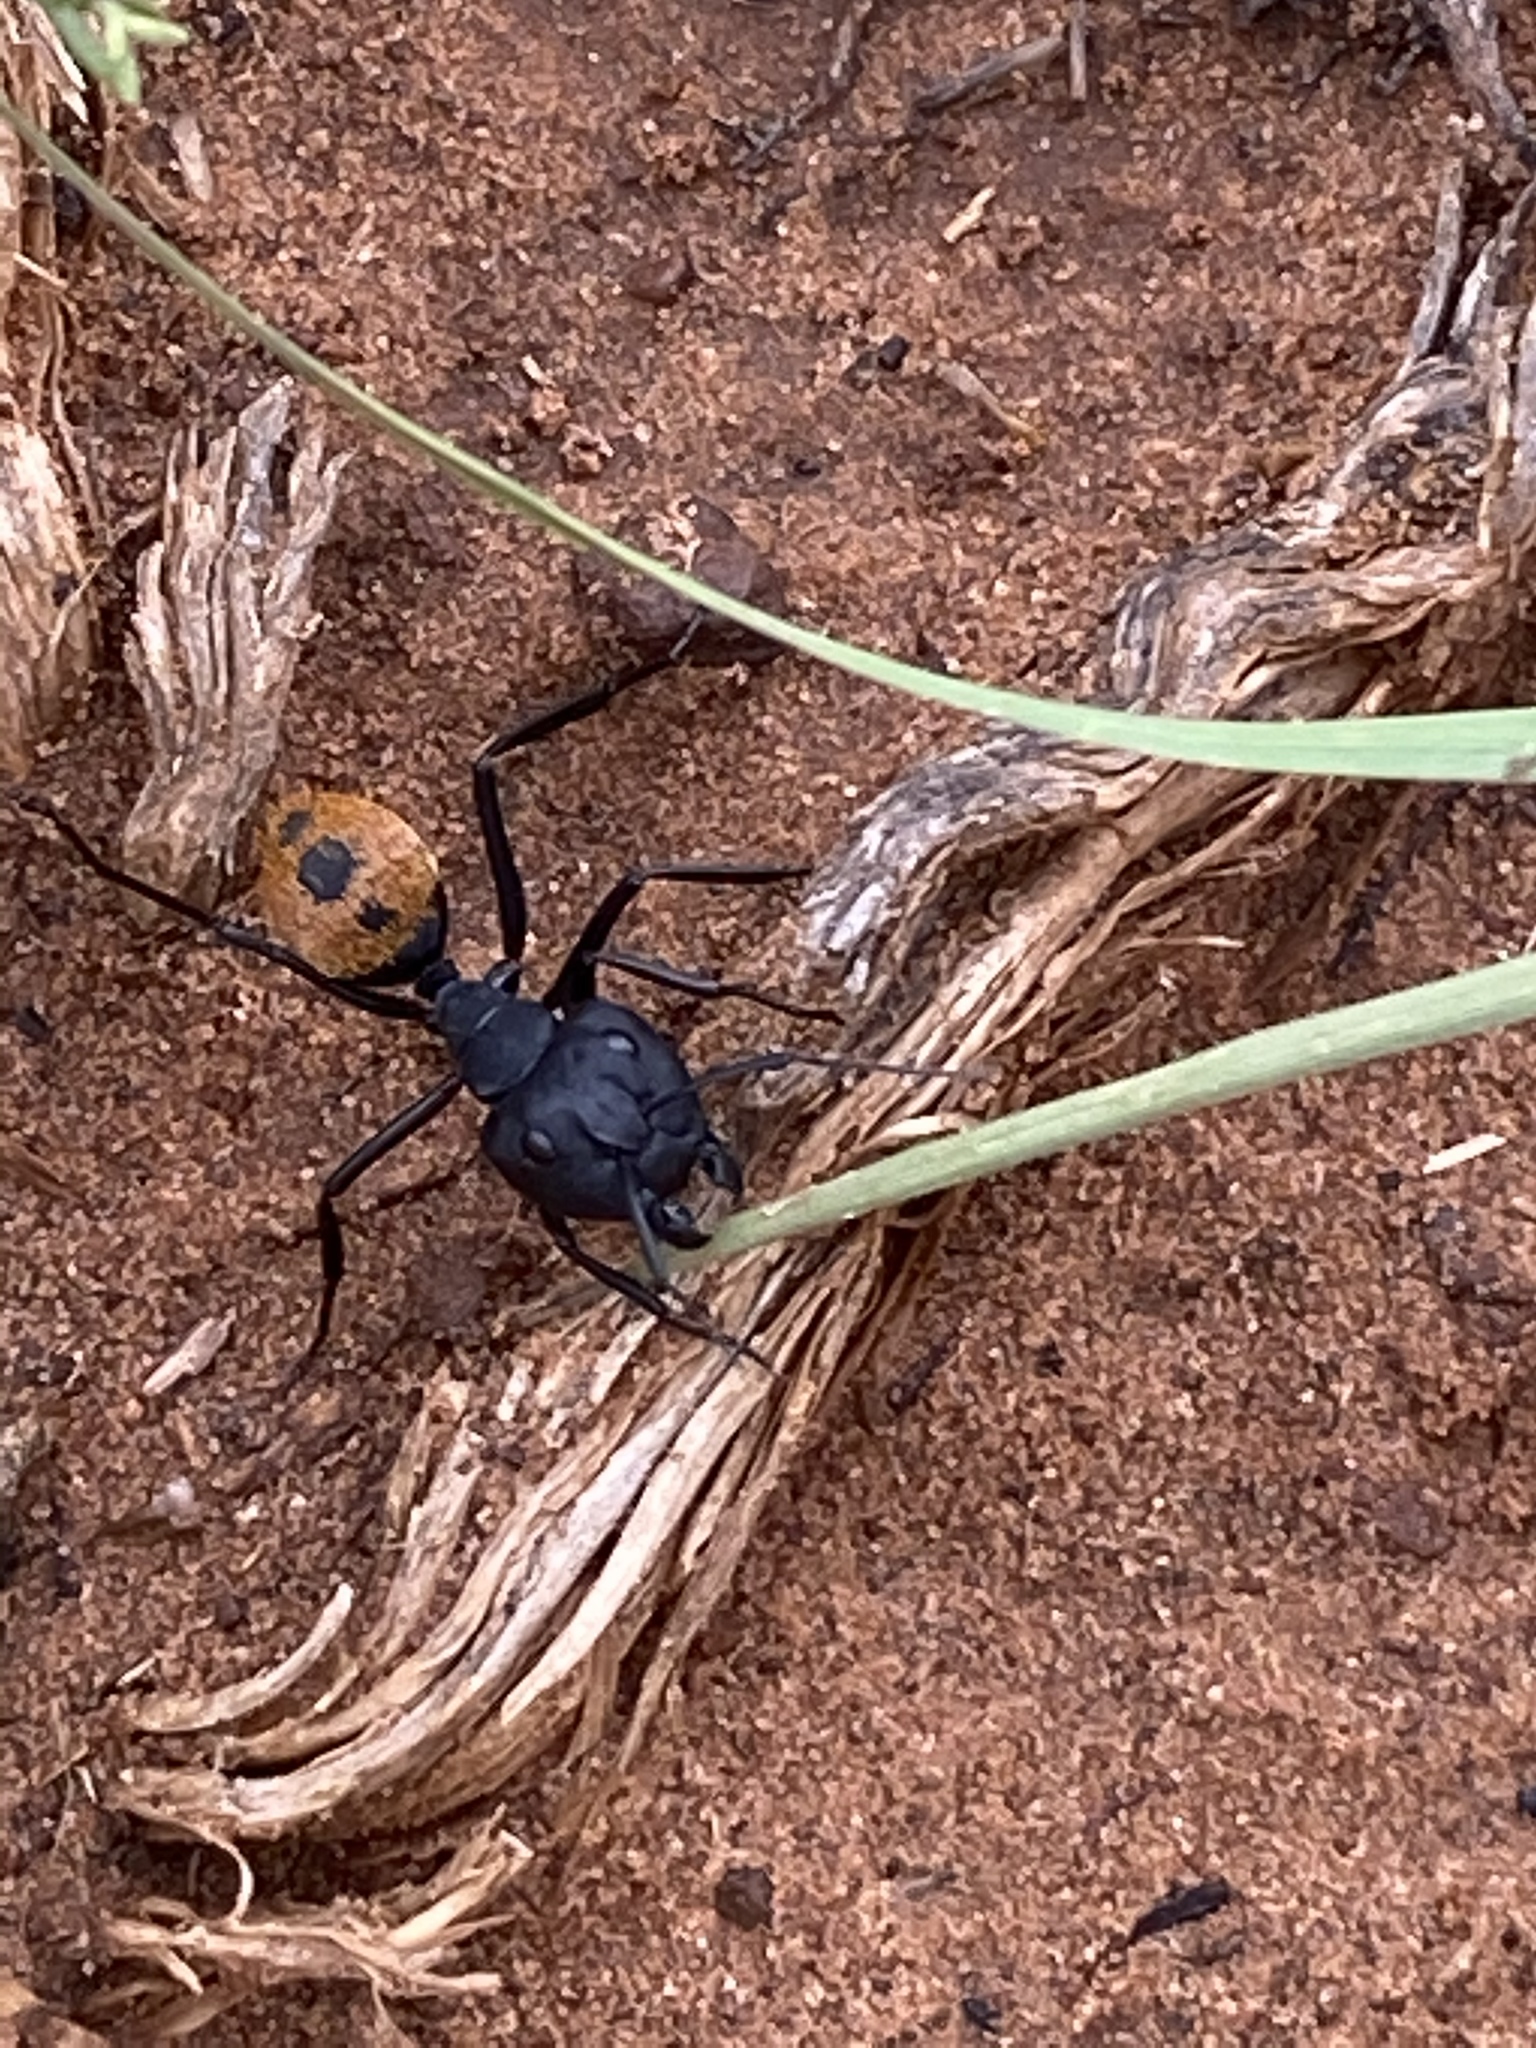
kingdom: Animalia
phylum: Arthropoda
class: Insecta
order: Hymenoptera
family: Formicidae
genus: Camponotus
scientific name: Camponotus fulvopilosus
